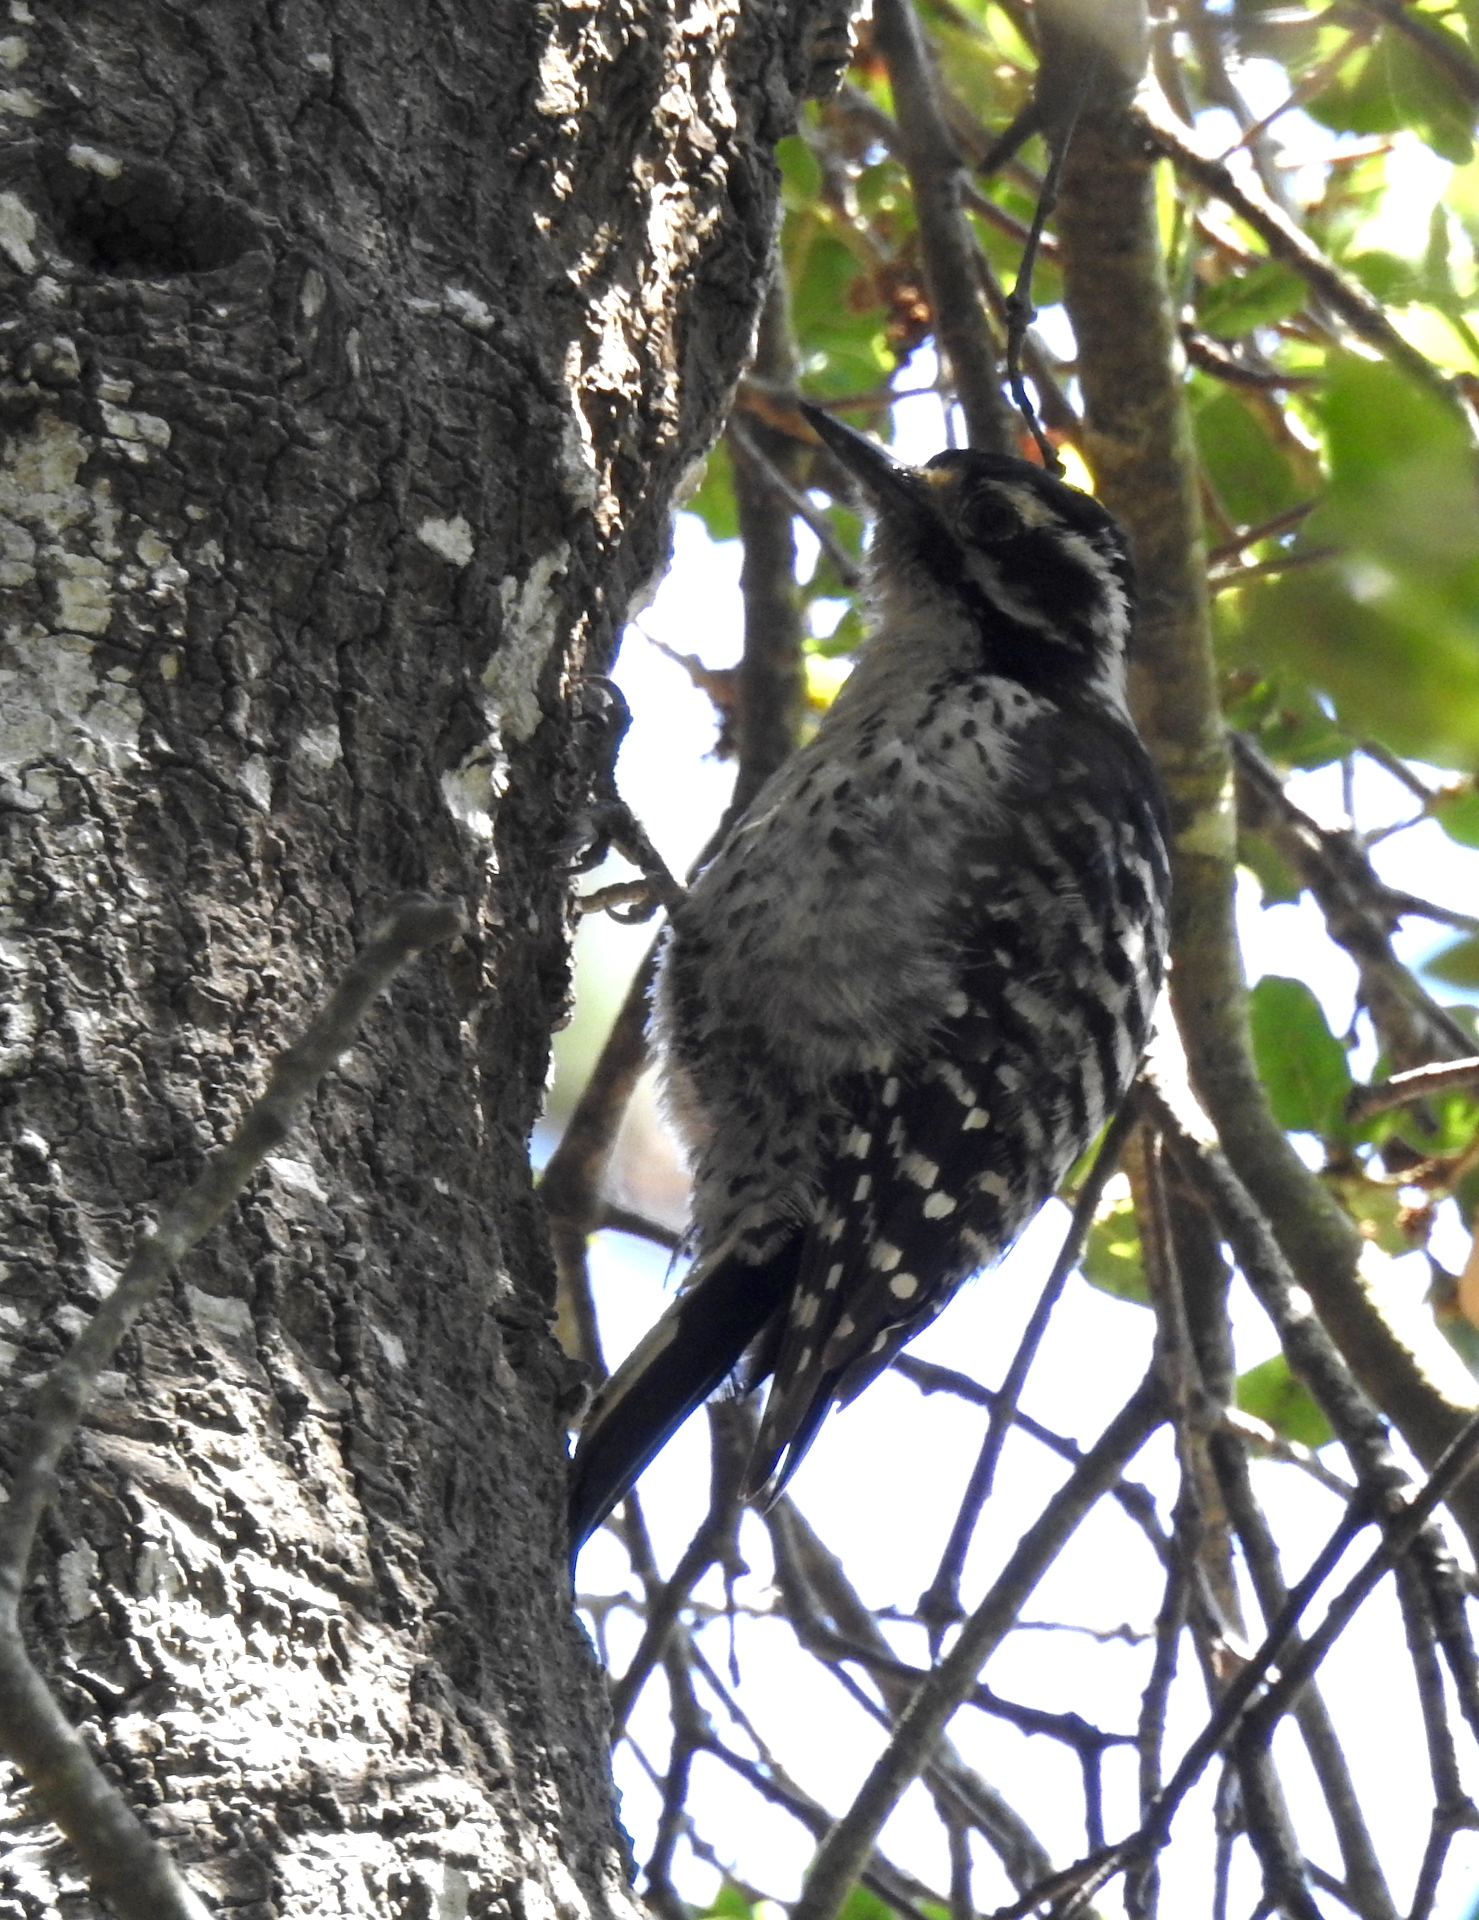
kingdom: Animalia
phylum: Chordata
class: Aves
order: Piciformes
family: Picidae
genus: Dryobates
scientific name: Dryobates nuttallii
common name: Nuttall's woodpecker
